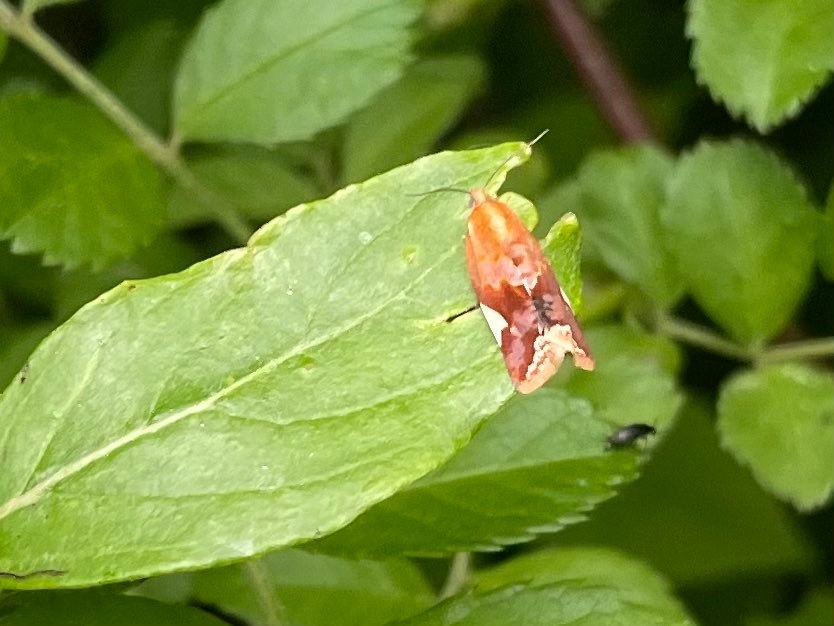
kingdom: Animalia
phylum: Arthropoda
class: Insecta
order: Lepidoptera
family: Tortricidae
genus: Clepsis
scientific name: Clepsis persicana
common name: White triangle tortrix
